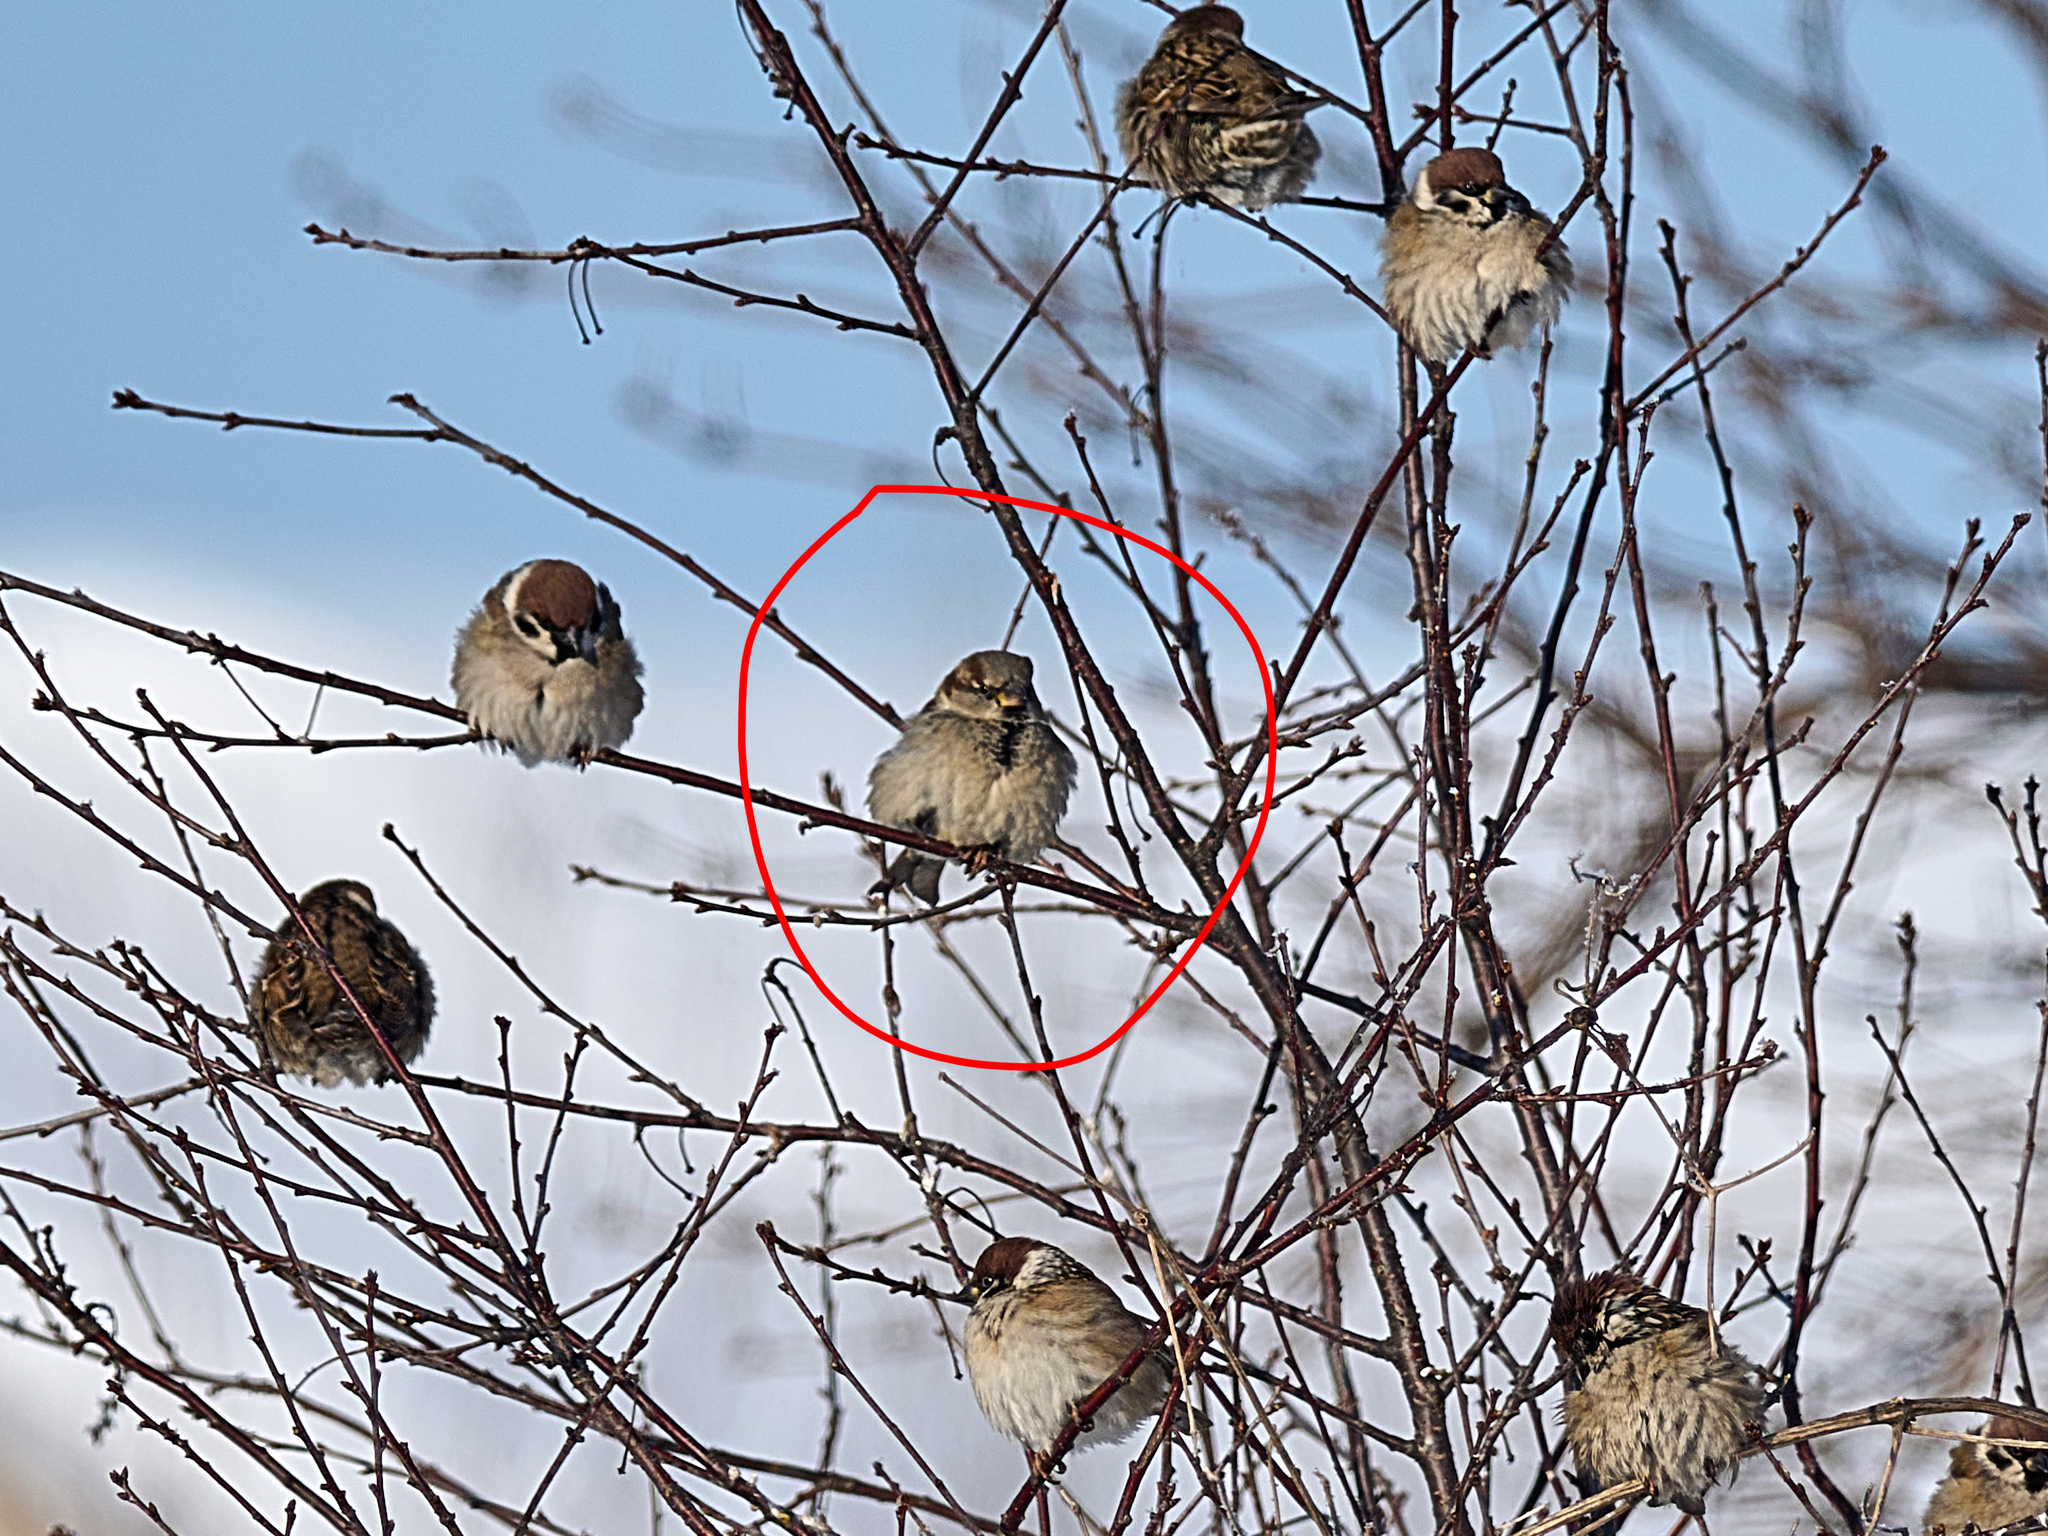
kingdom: Animalia
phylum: Chordata
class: Aves
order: Passeriformes
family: Passeridae
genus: Passer
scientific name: Passer domesticus
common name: House sparrow
